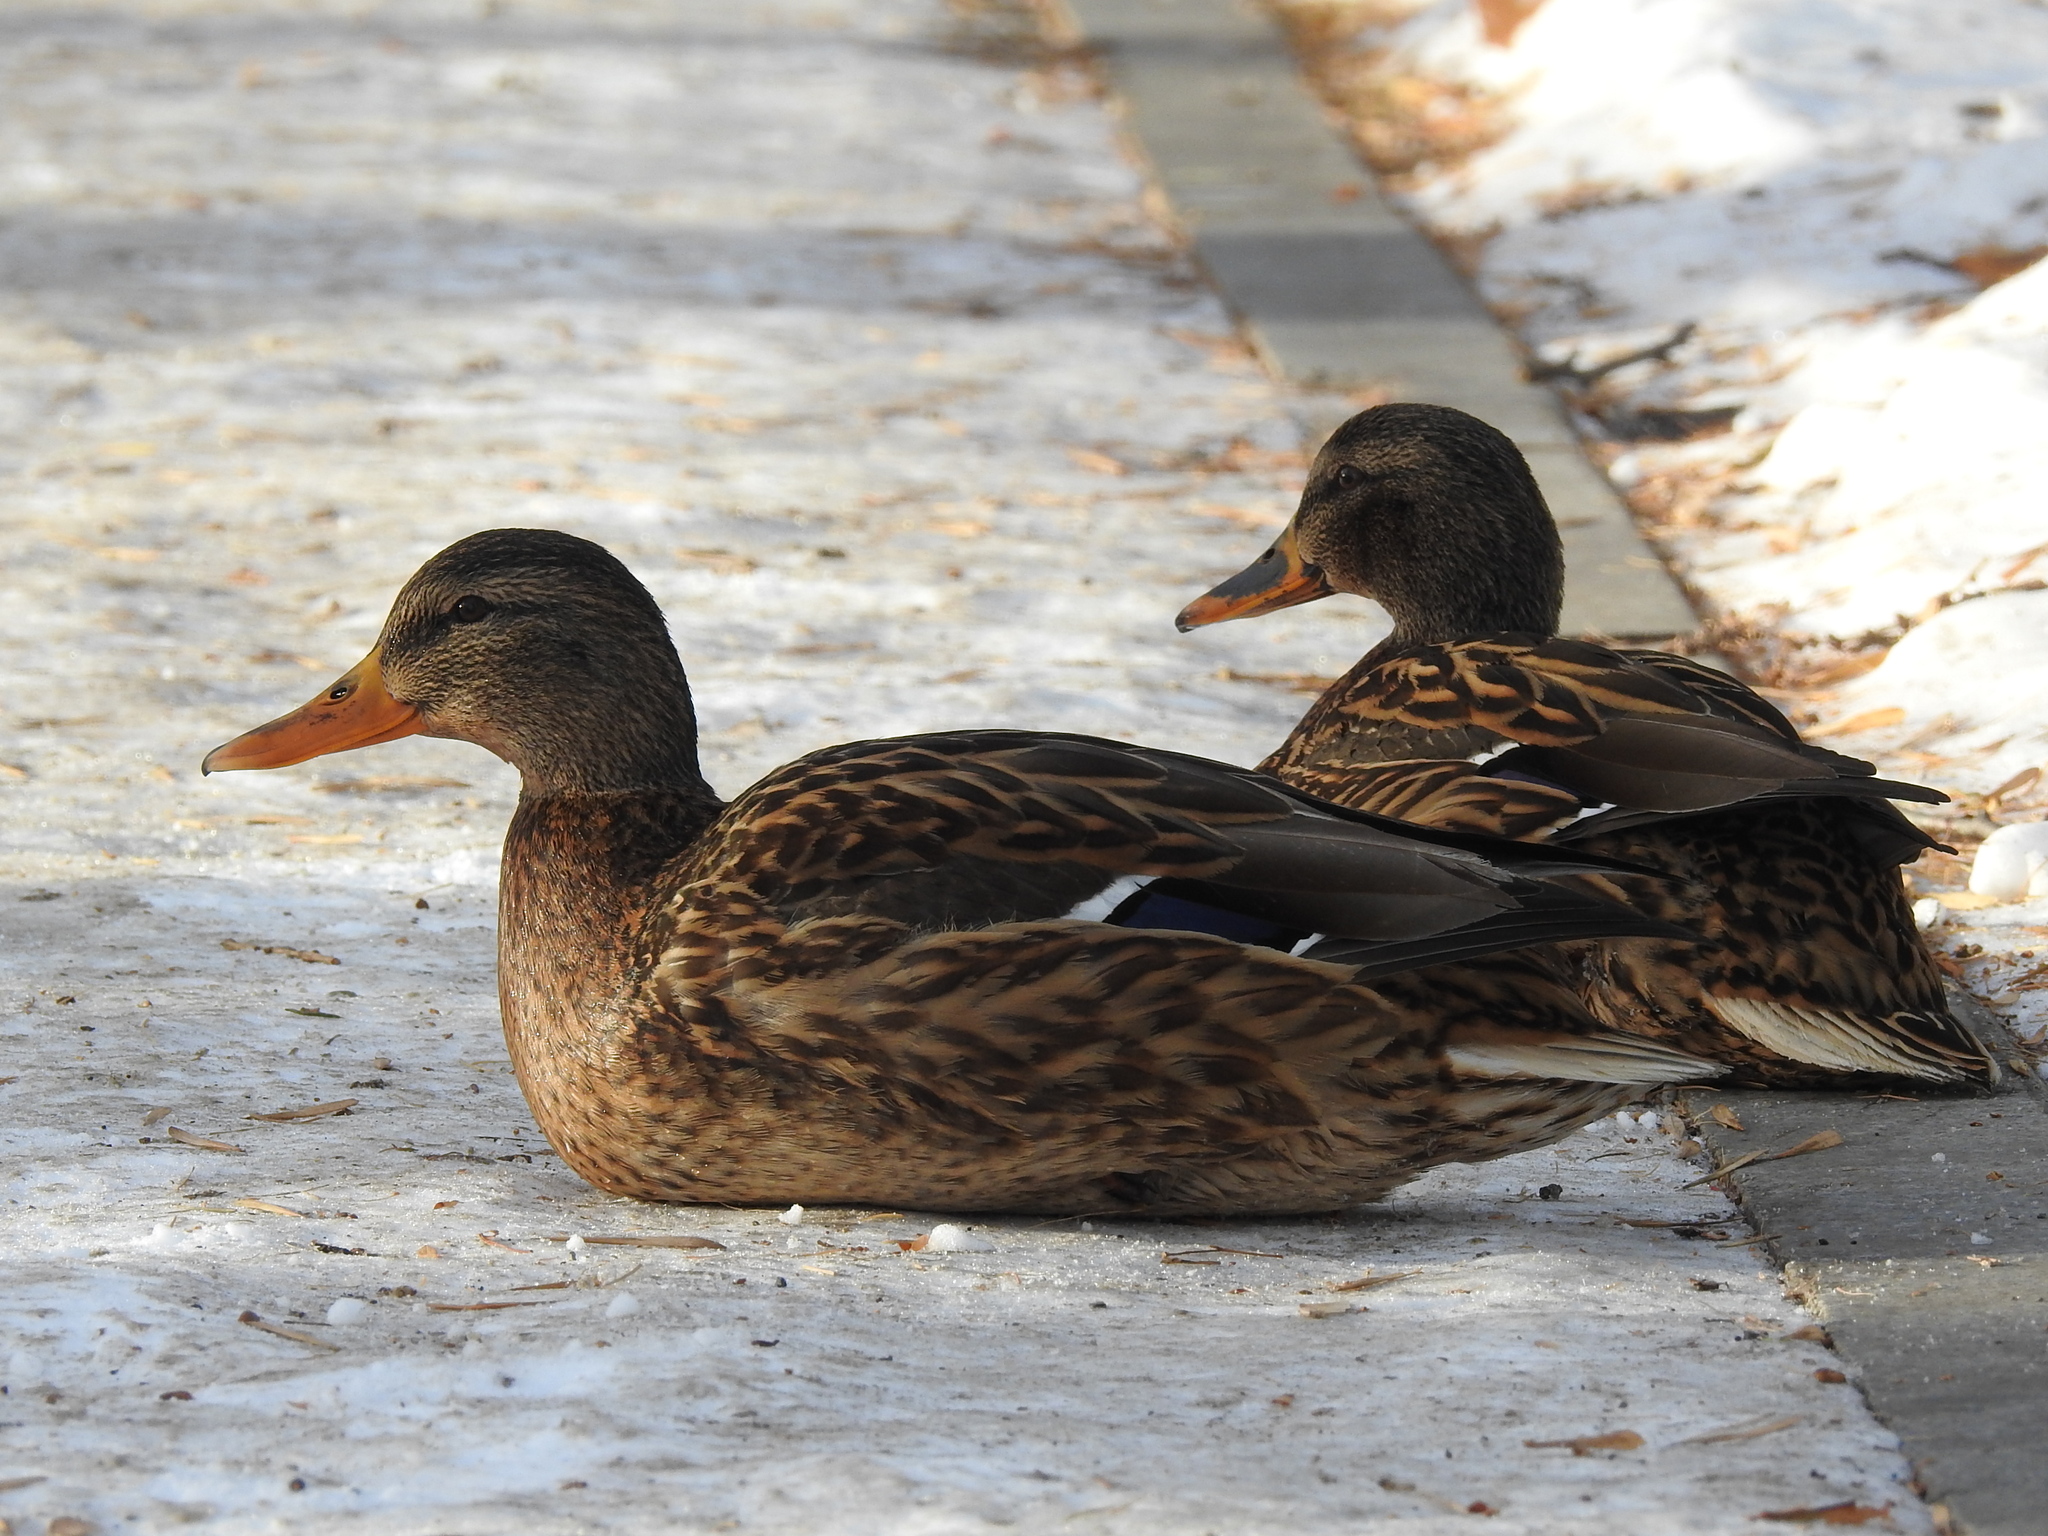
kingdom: Animalia
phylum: Chordata
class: Aves
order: Anseriformes
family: Anatidae
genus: Anas
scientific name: Anas platyrhynchos
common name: Mallard
